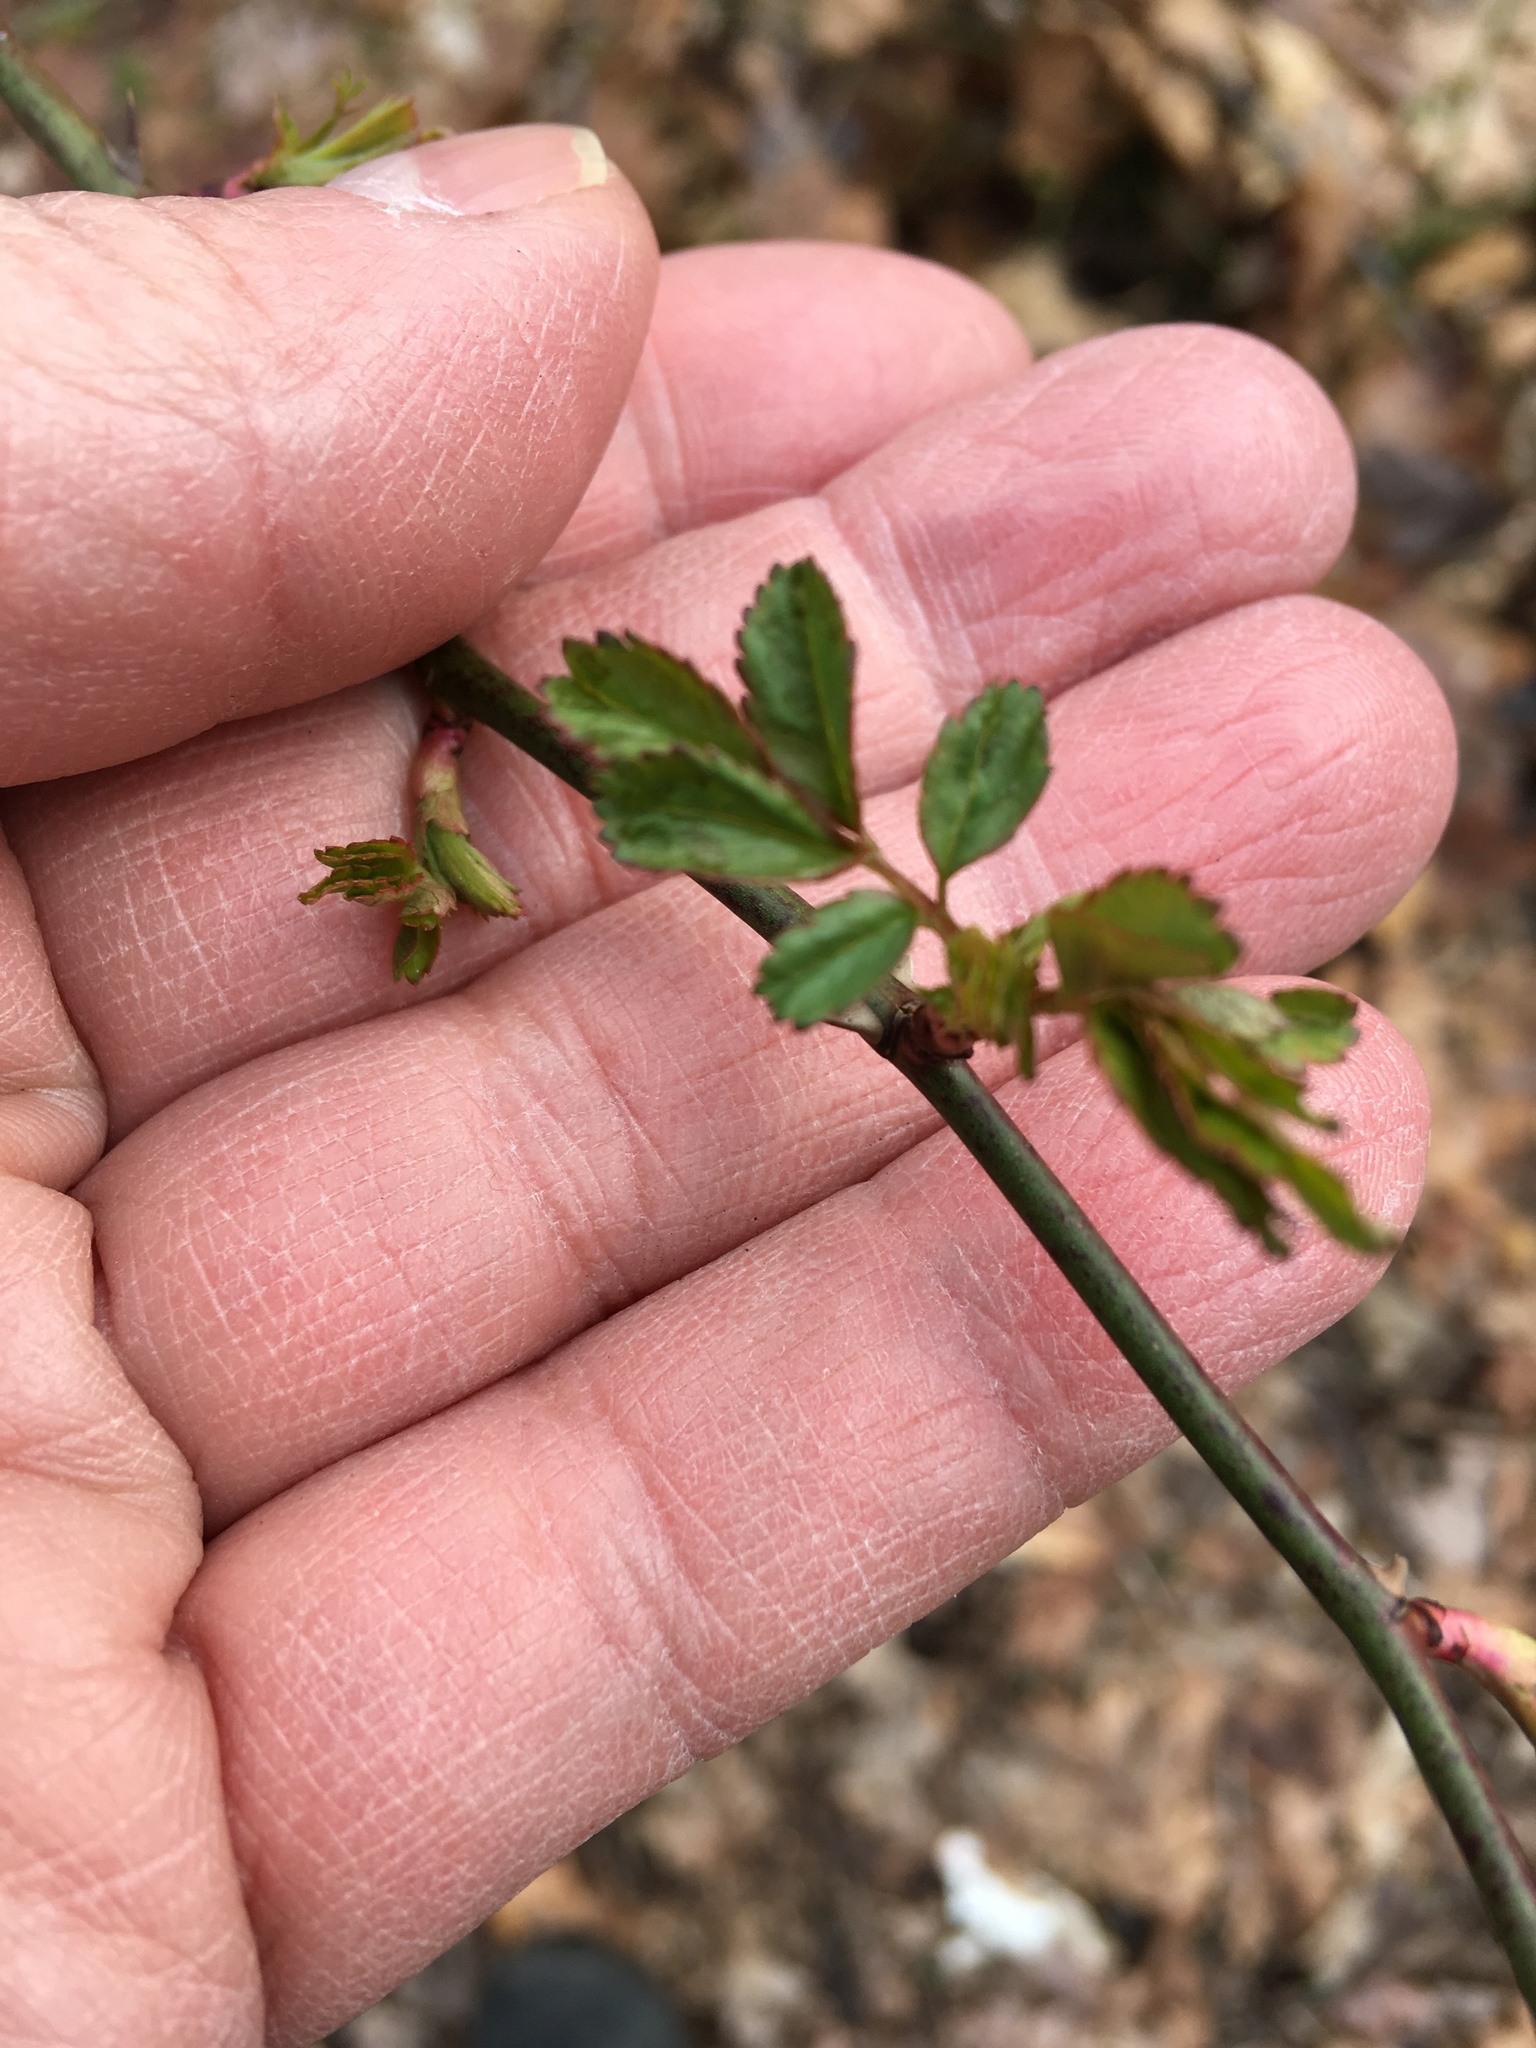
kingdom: Plantae
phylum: Tracheophyta
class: Magnoliopsida
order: Rosales
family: Rosaceae
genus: Rosa
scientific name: Rosa multiflora
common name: Multiflora rose
